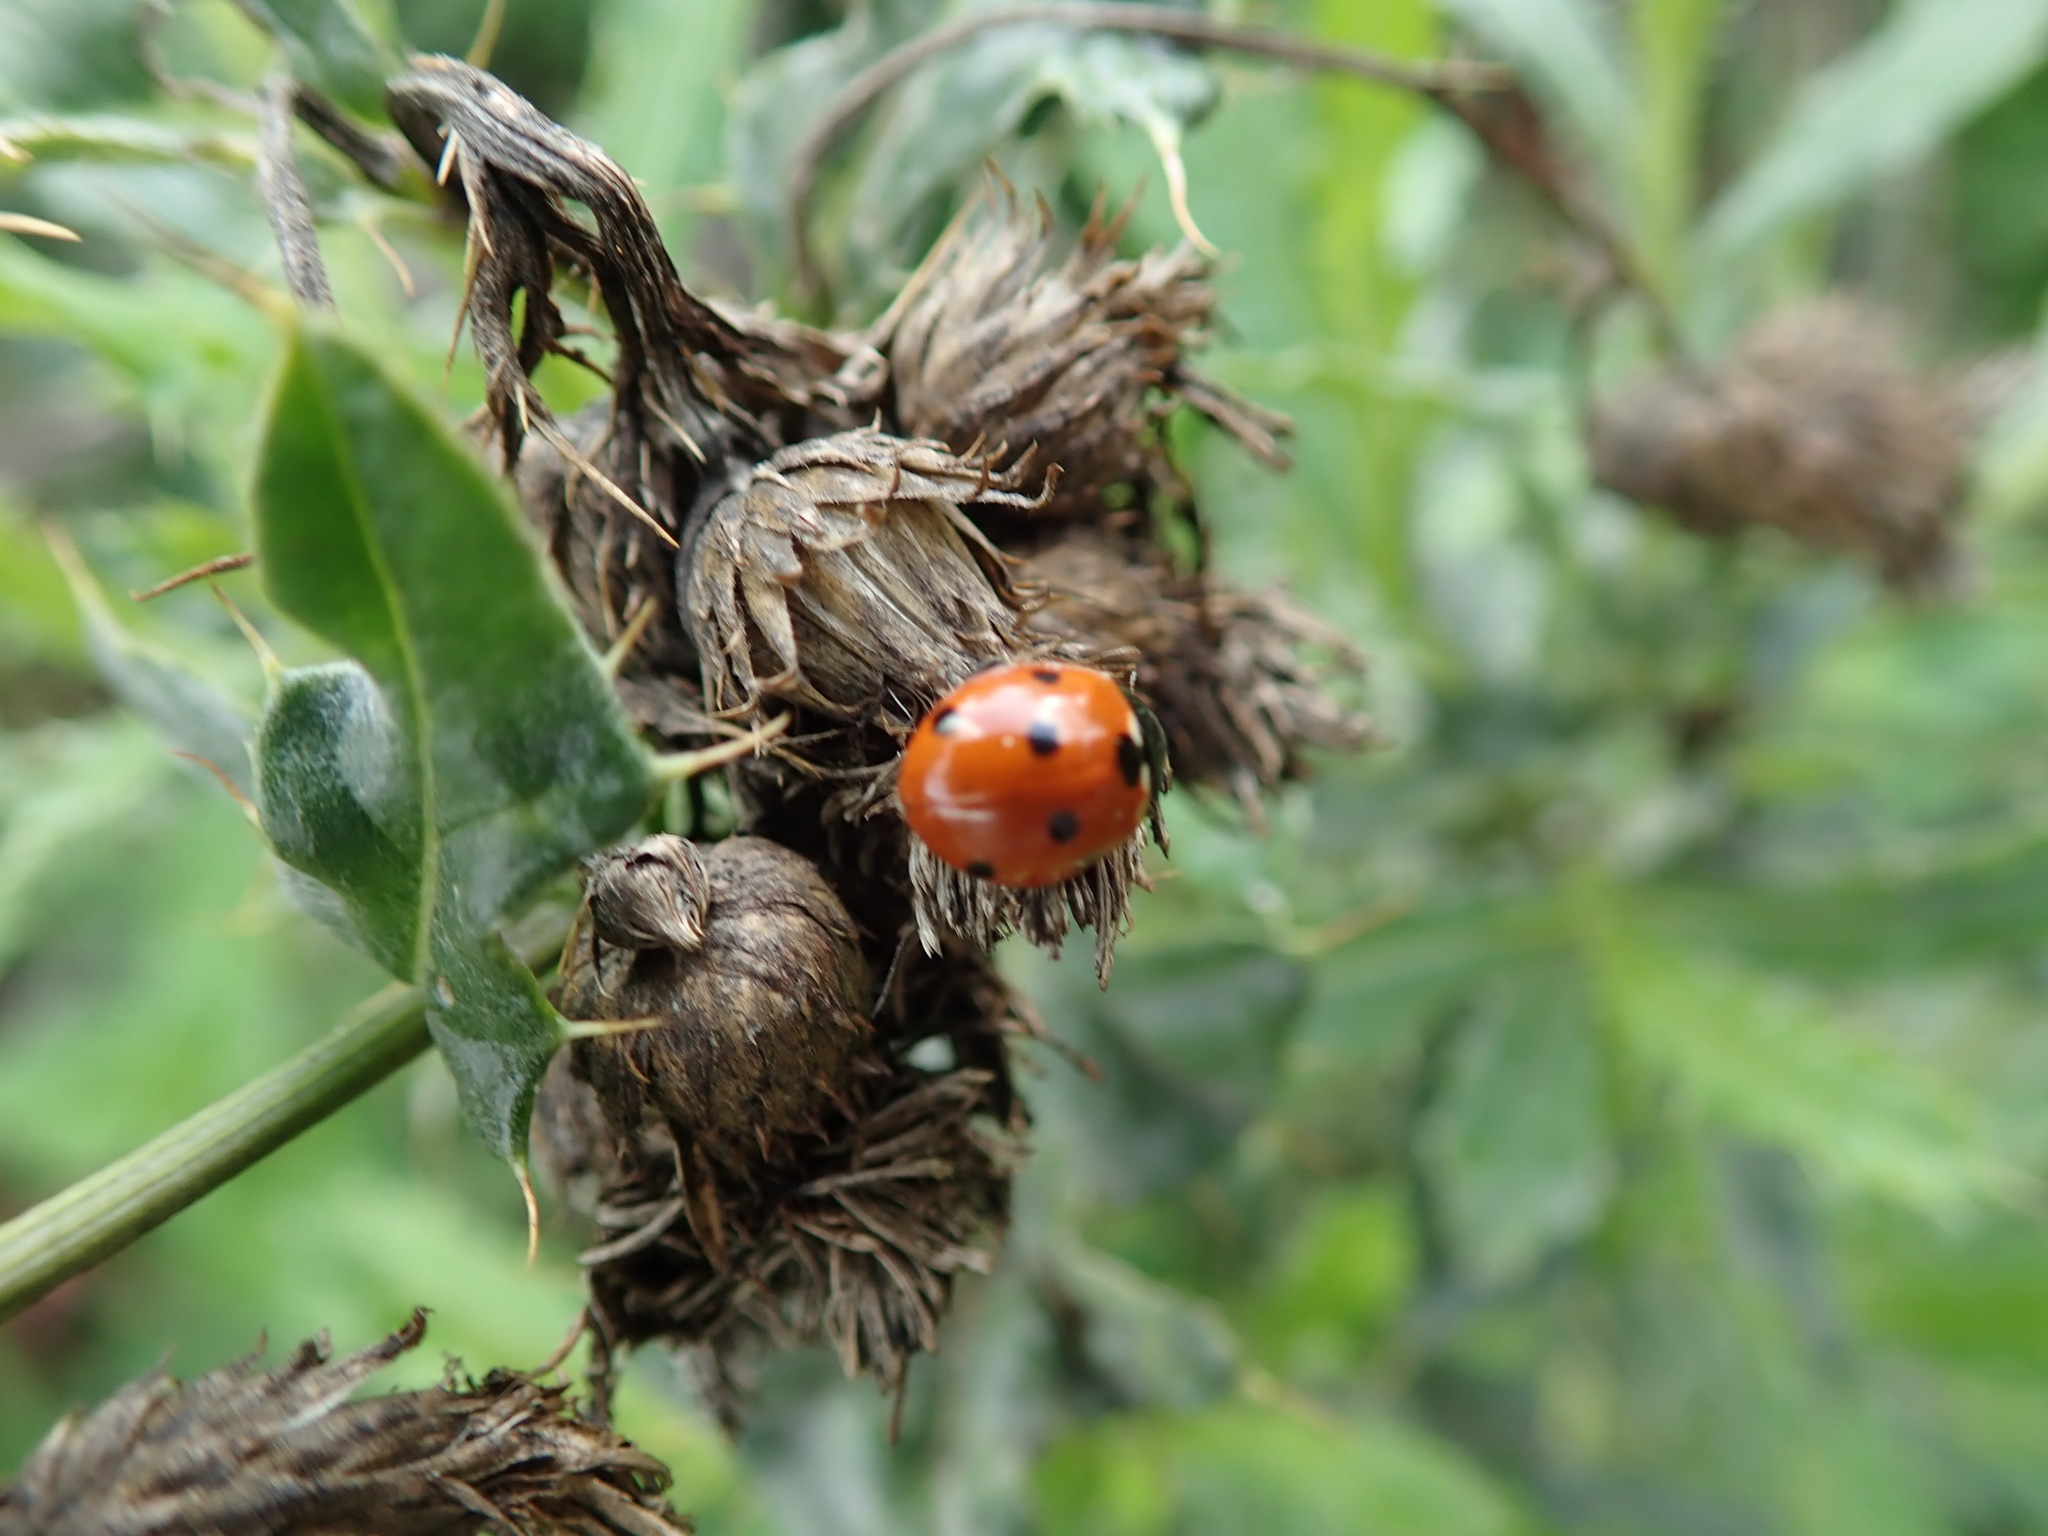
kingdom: Animalia
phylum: Arthropoda
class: Insecta
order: Coleoptera
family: Coccinellidae
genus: Coccinella
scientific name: Coccinella septempunctata
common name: Sevenspotted lady beetle
